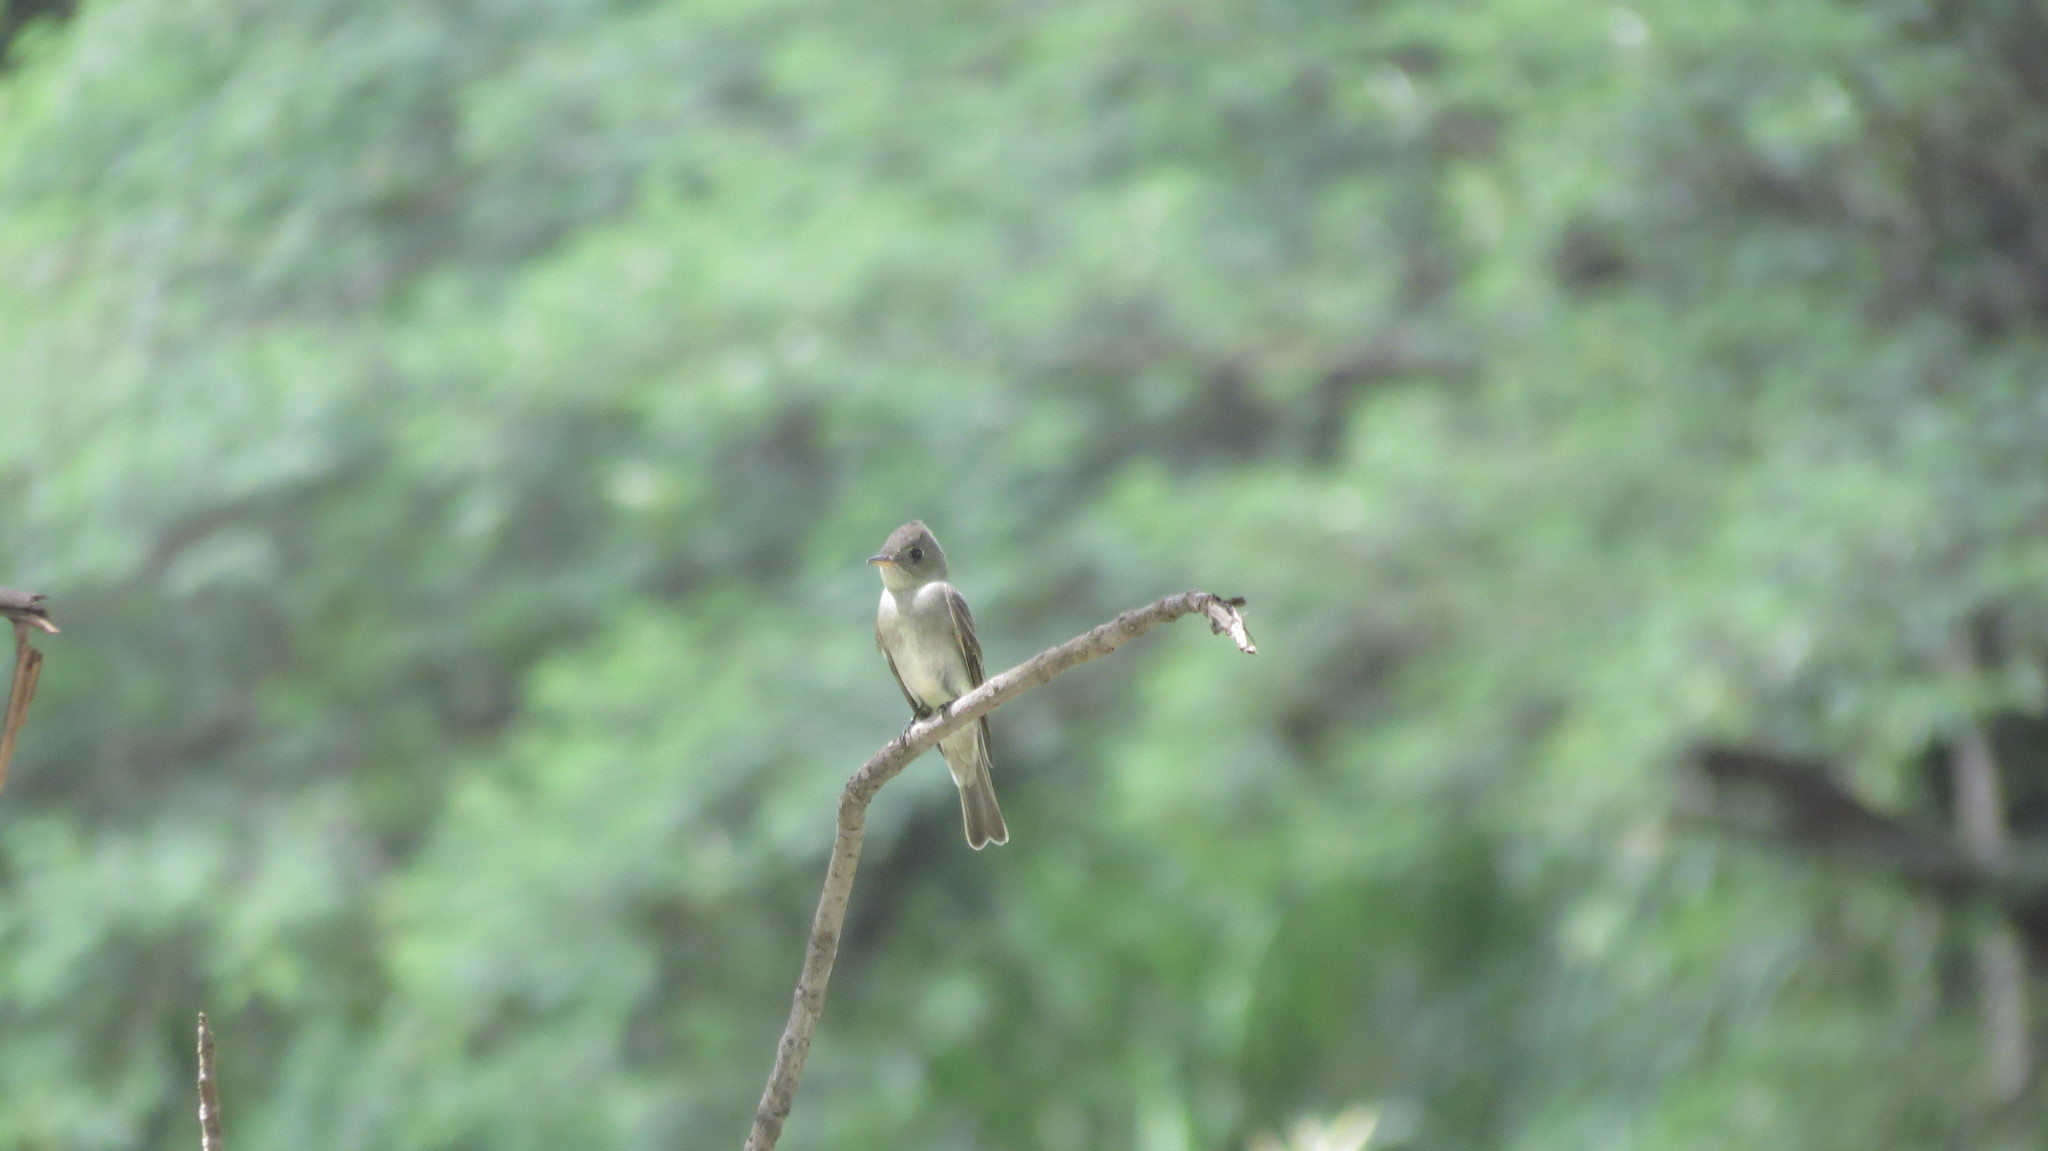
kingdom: Animalia
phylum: Chordata
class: Aves
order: Passeriformes
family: Tyrannidae
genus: Contopus
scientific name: Contopus virens
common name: Eastern wood-pewee
